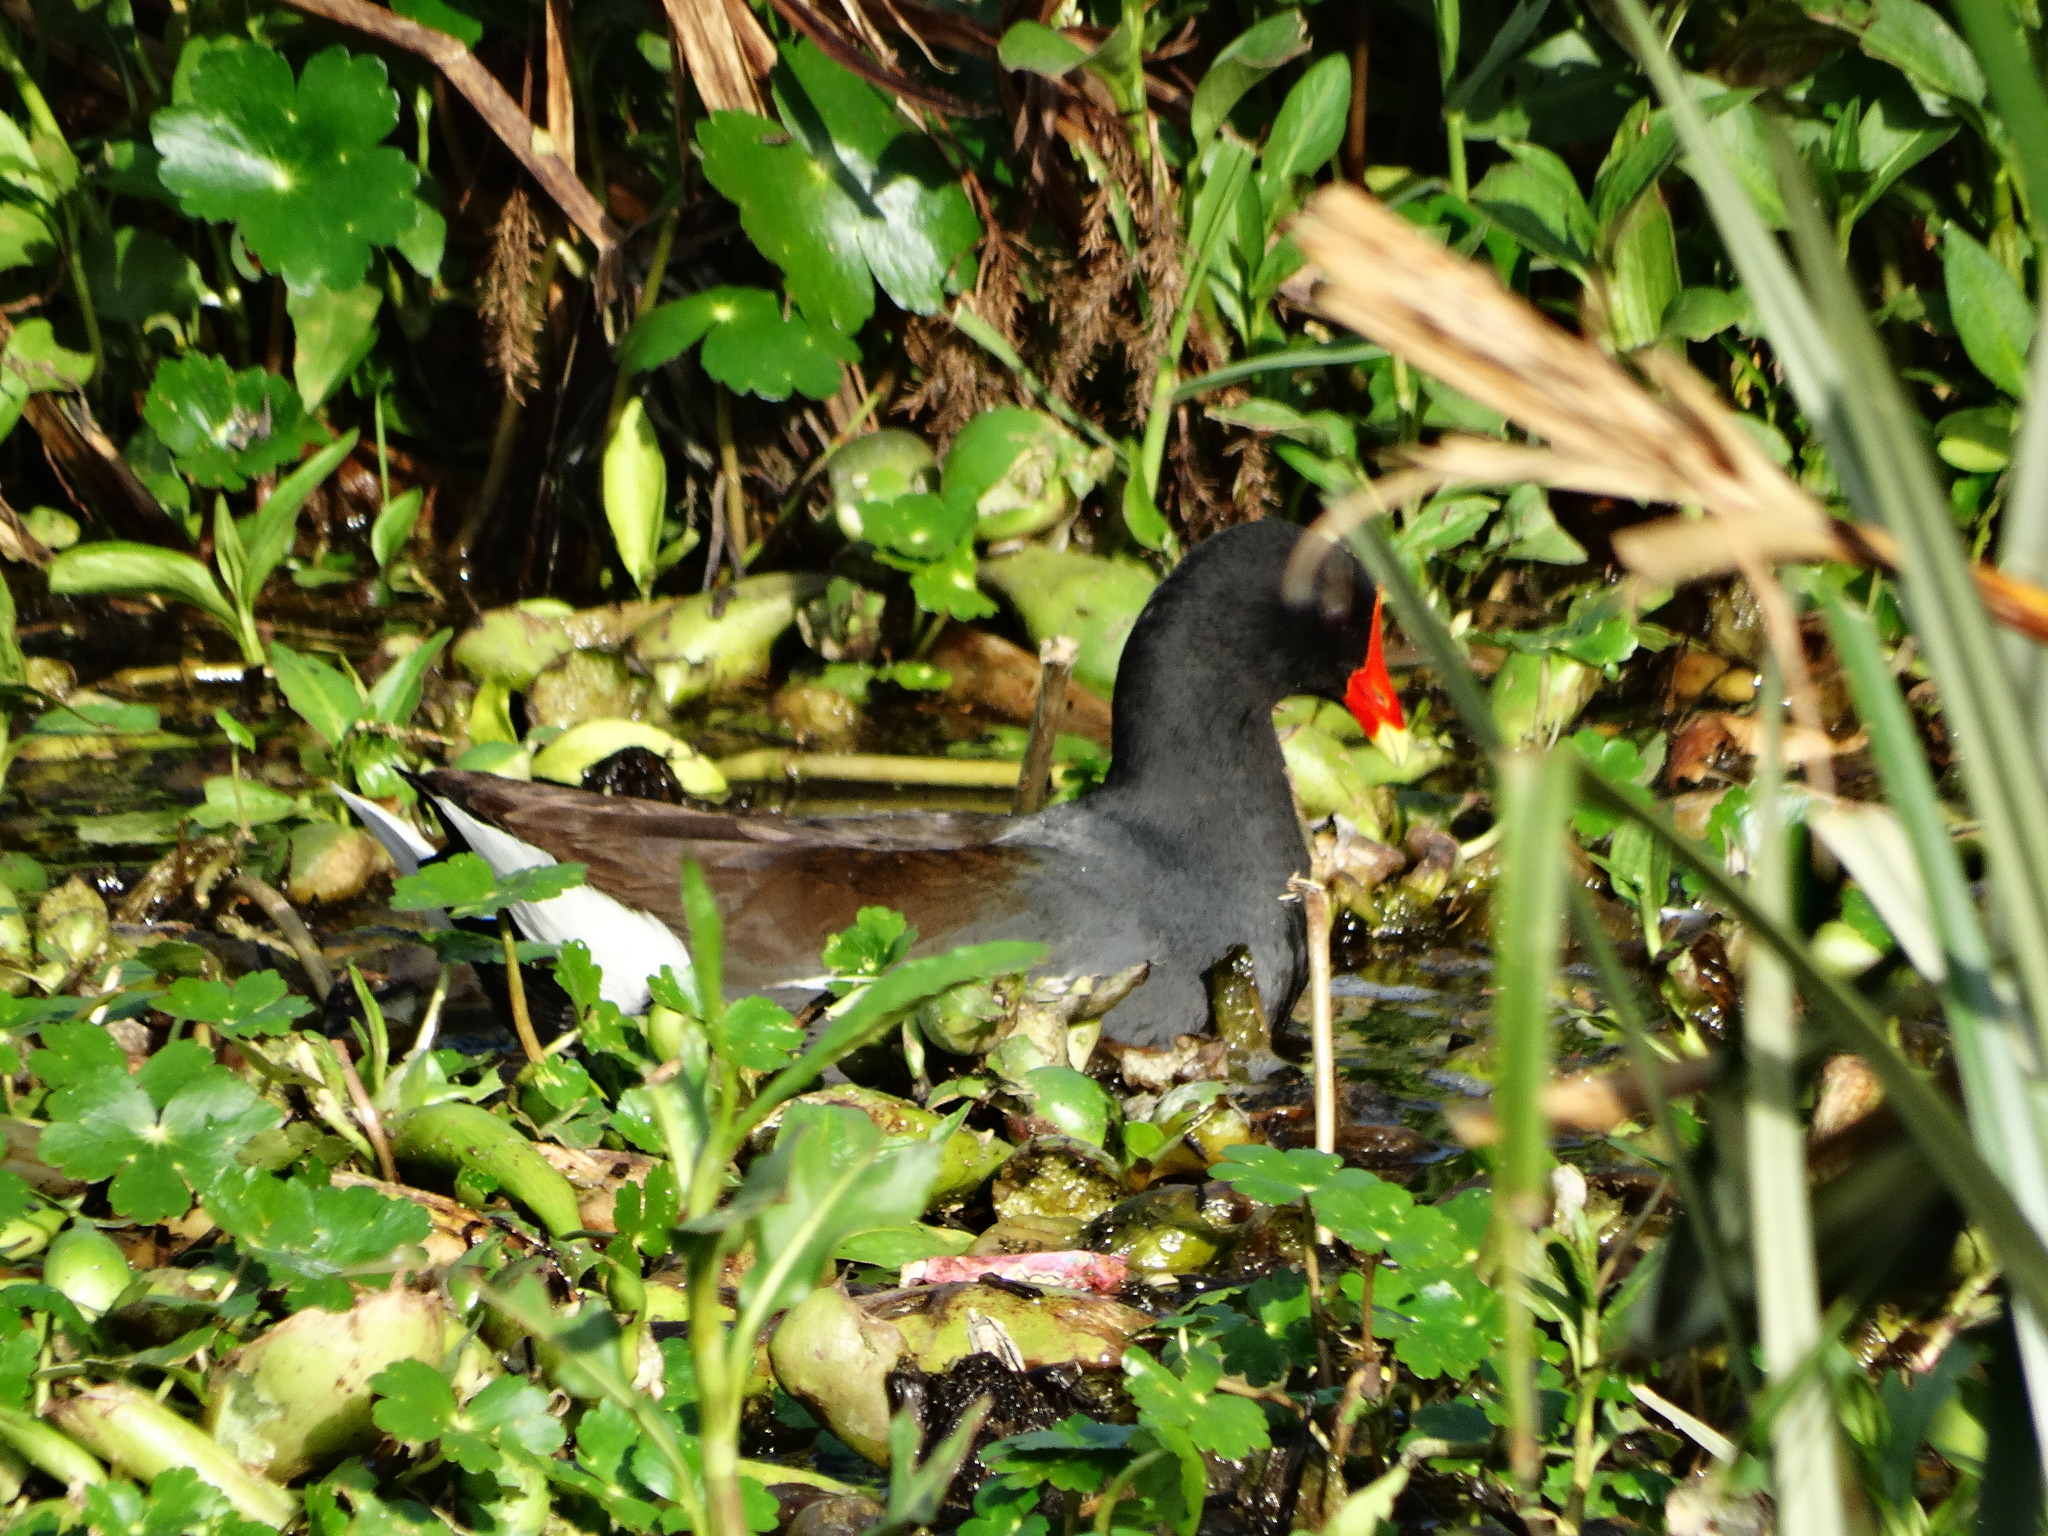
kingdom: Animalia
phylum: Chordata
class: Aves
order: Gruiformes
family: Rallidae
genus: Gallinula
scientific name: Gallinula chloropus
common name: Common moorhen
